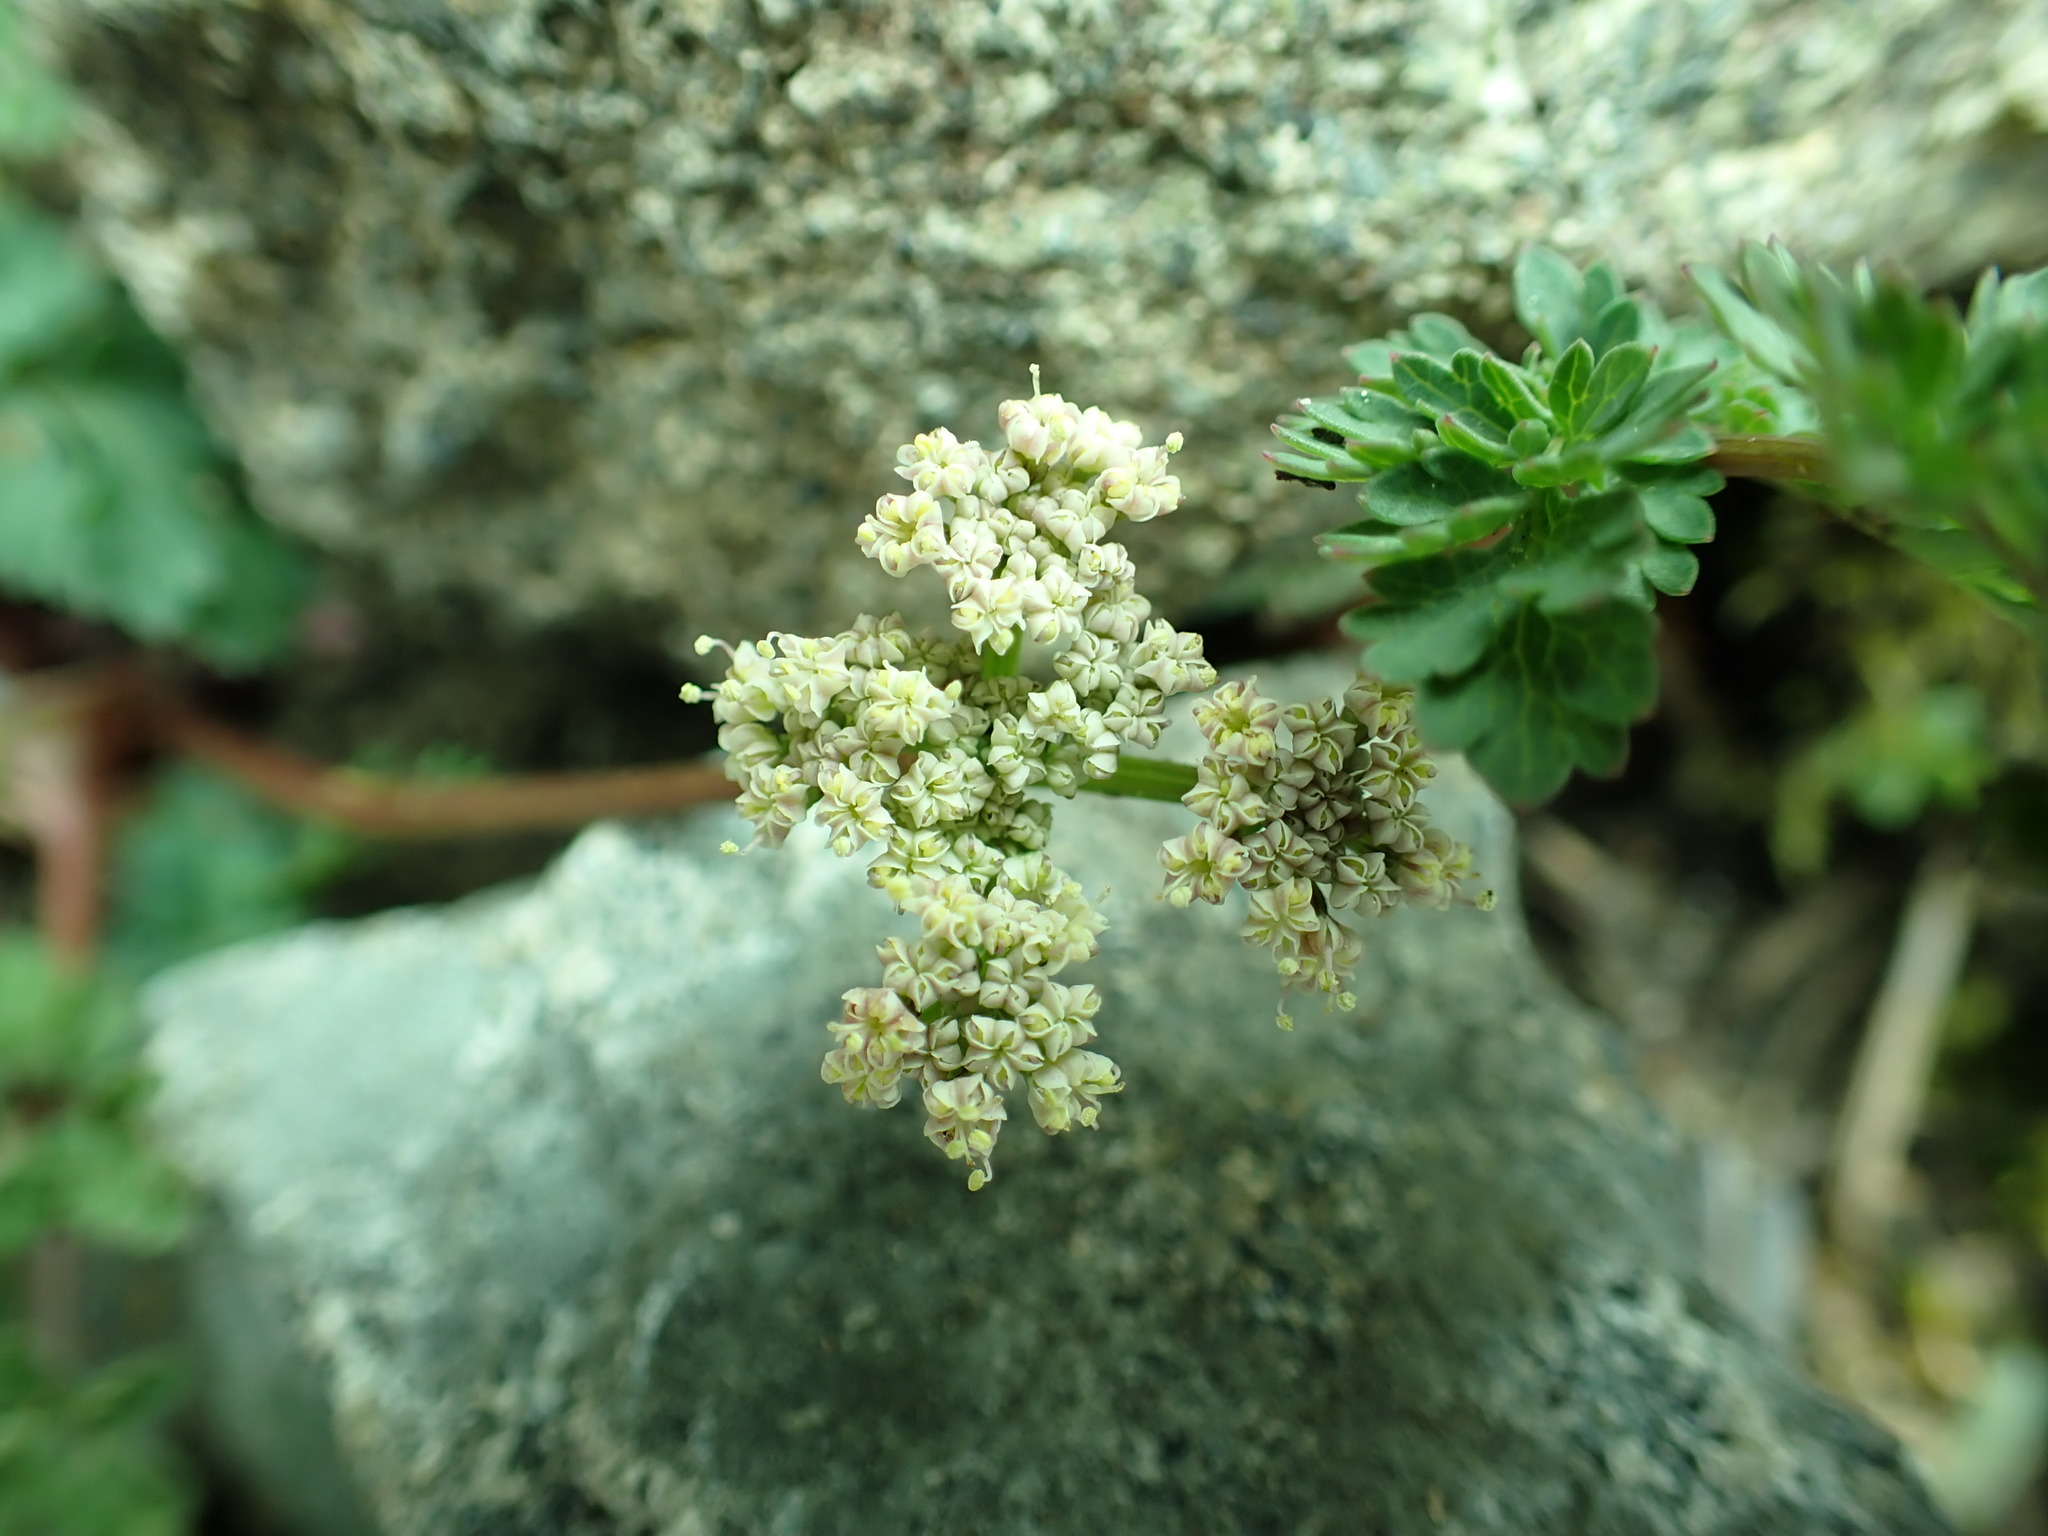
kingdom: Plantae
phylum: Tracheophyta
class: Magnoliopsida
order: Apiales
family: Apiaceae
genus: Lomatium
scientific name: Lomatium martindalei
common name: Cascade desert-parsley
